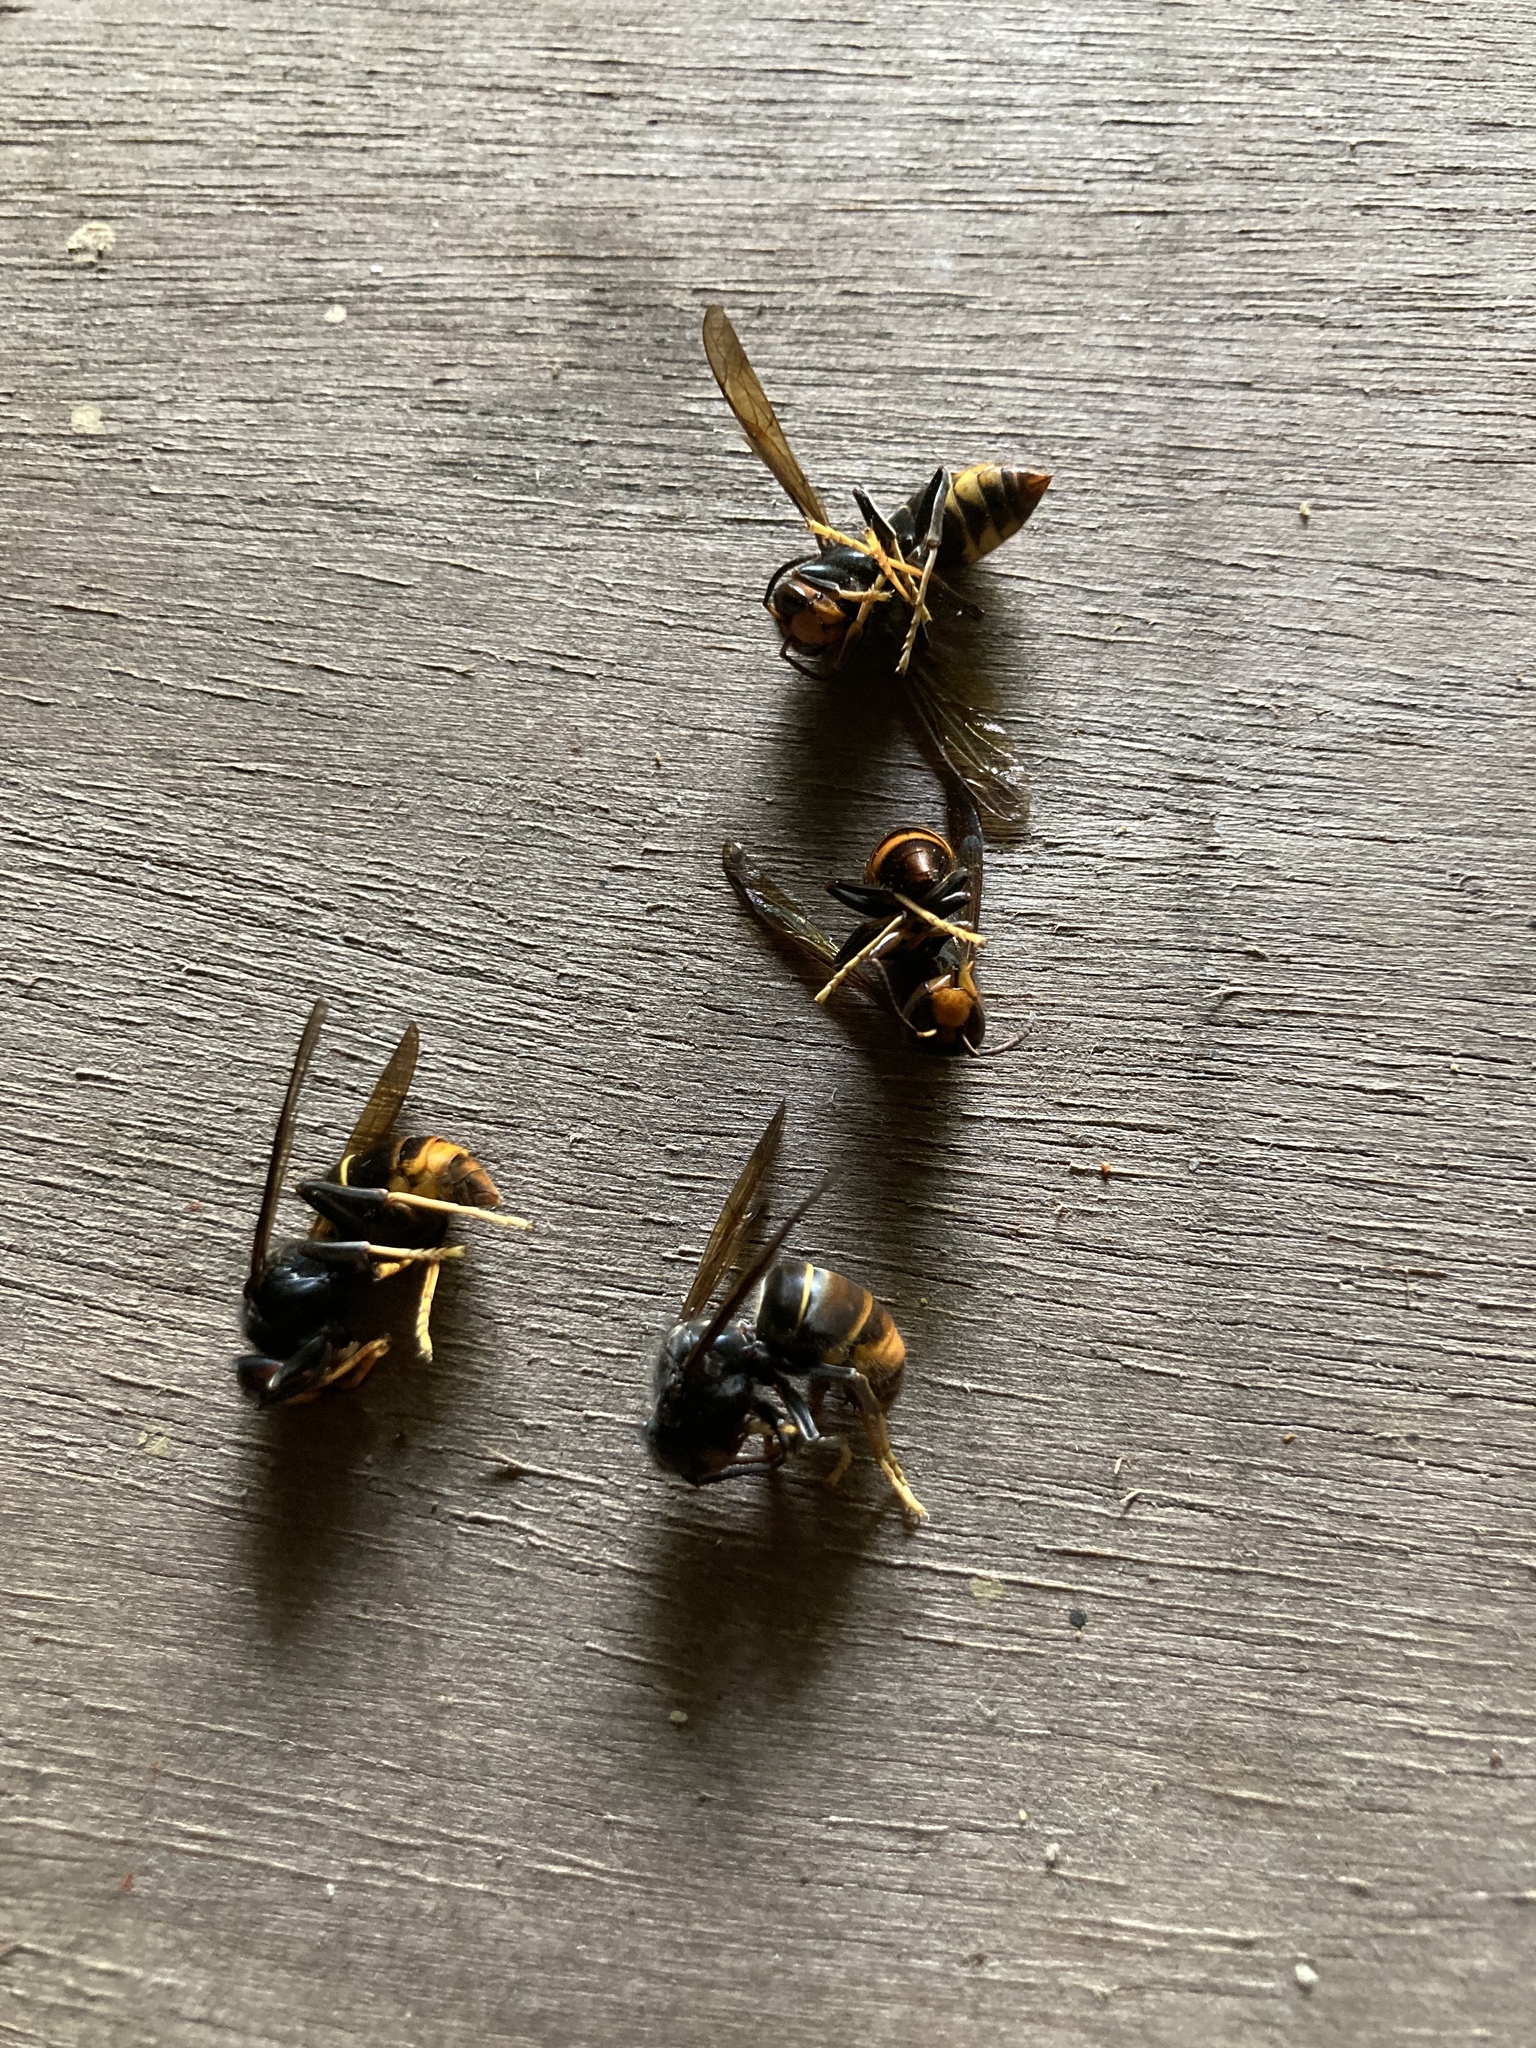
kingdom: Animalia
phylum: Arthropoda
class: Insecta
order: Hymenoptera
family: Vespidae
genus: Vespa
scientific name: Vespa velutina
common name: Asian hornet
